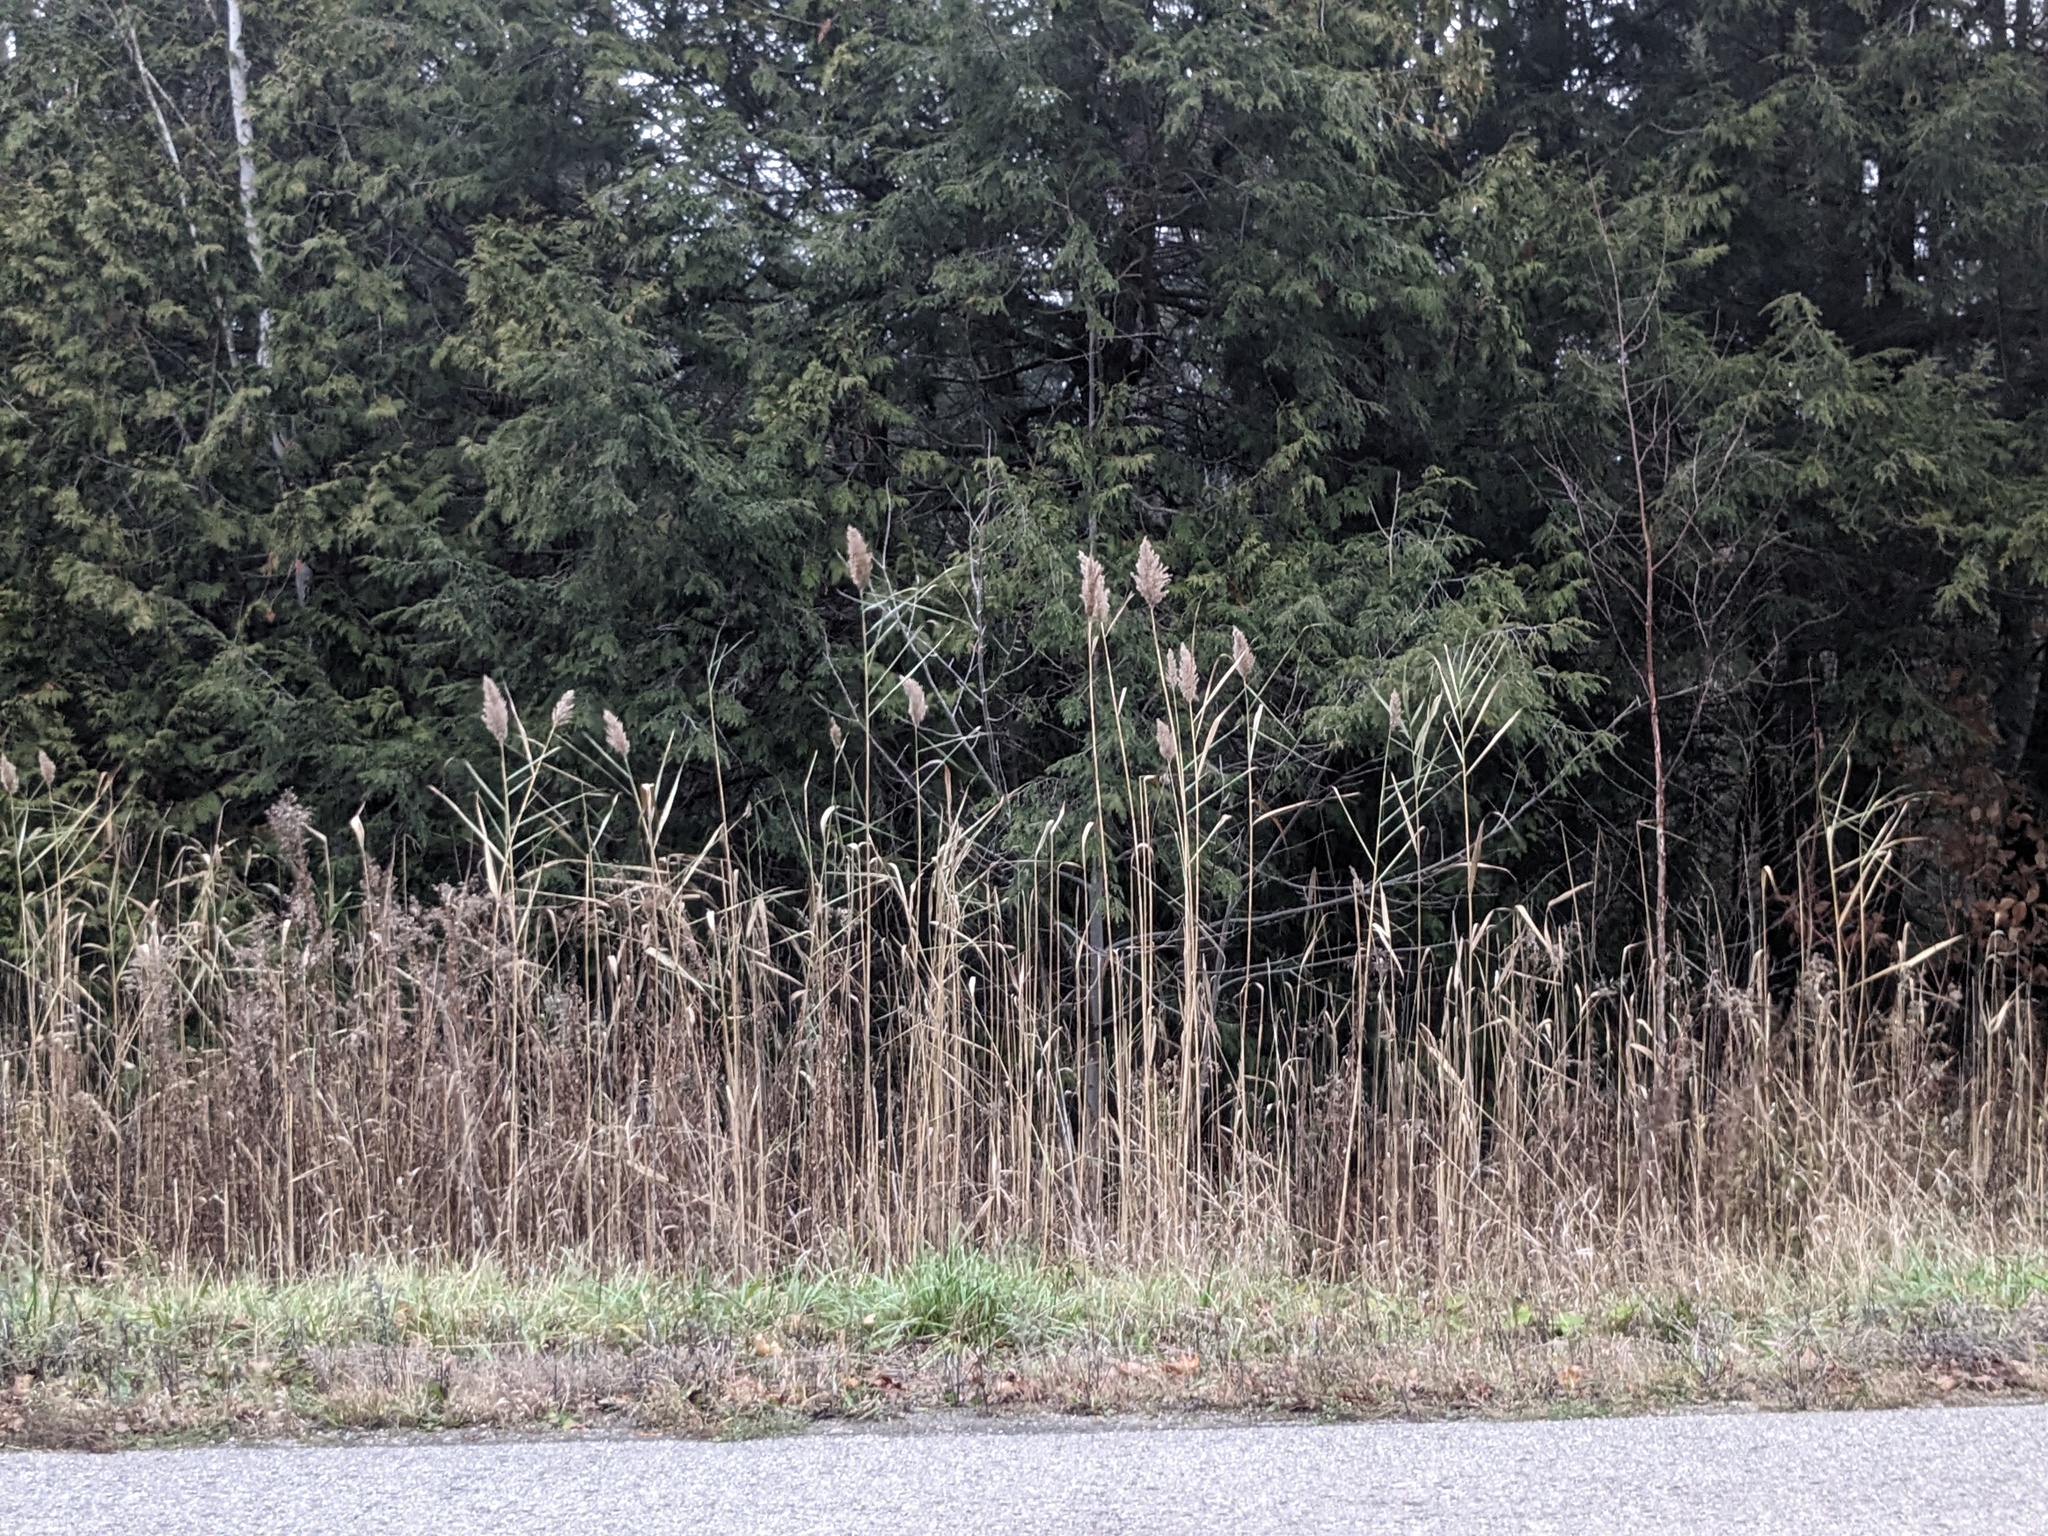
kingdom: Plantae
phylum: Tracheophyta
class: Liliopsida
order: Poales
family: Poaceae
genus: Phragmites
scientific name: Phragmites australis
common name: Common reed
